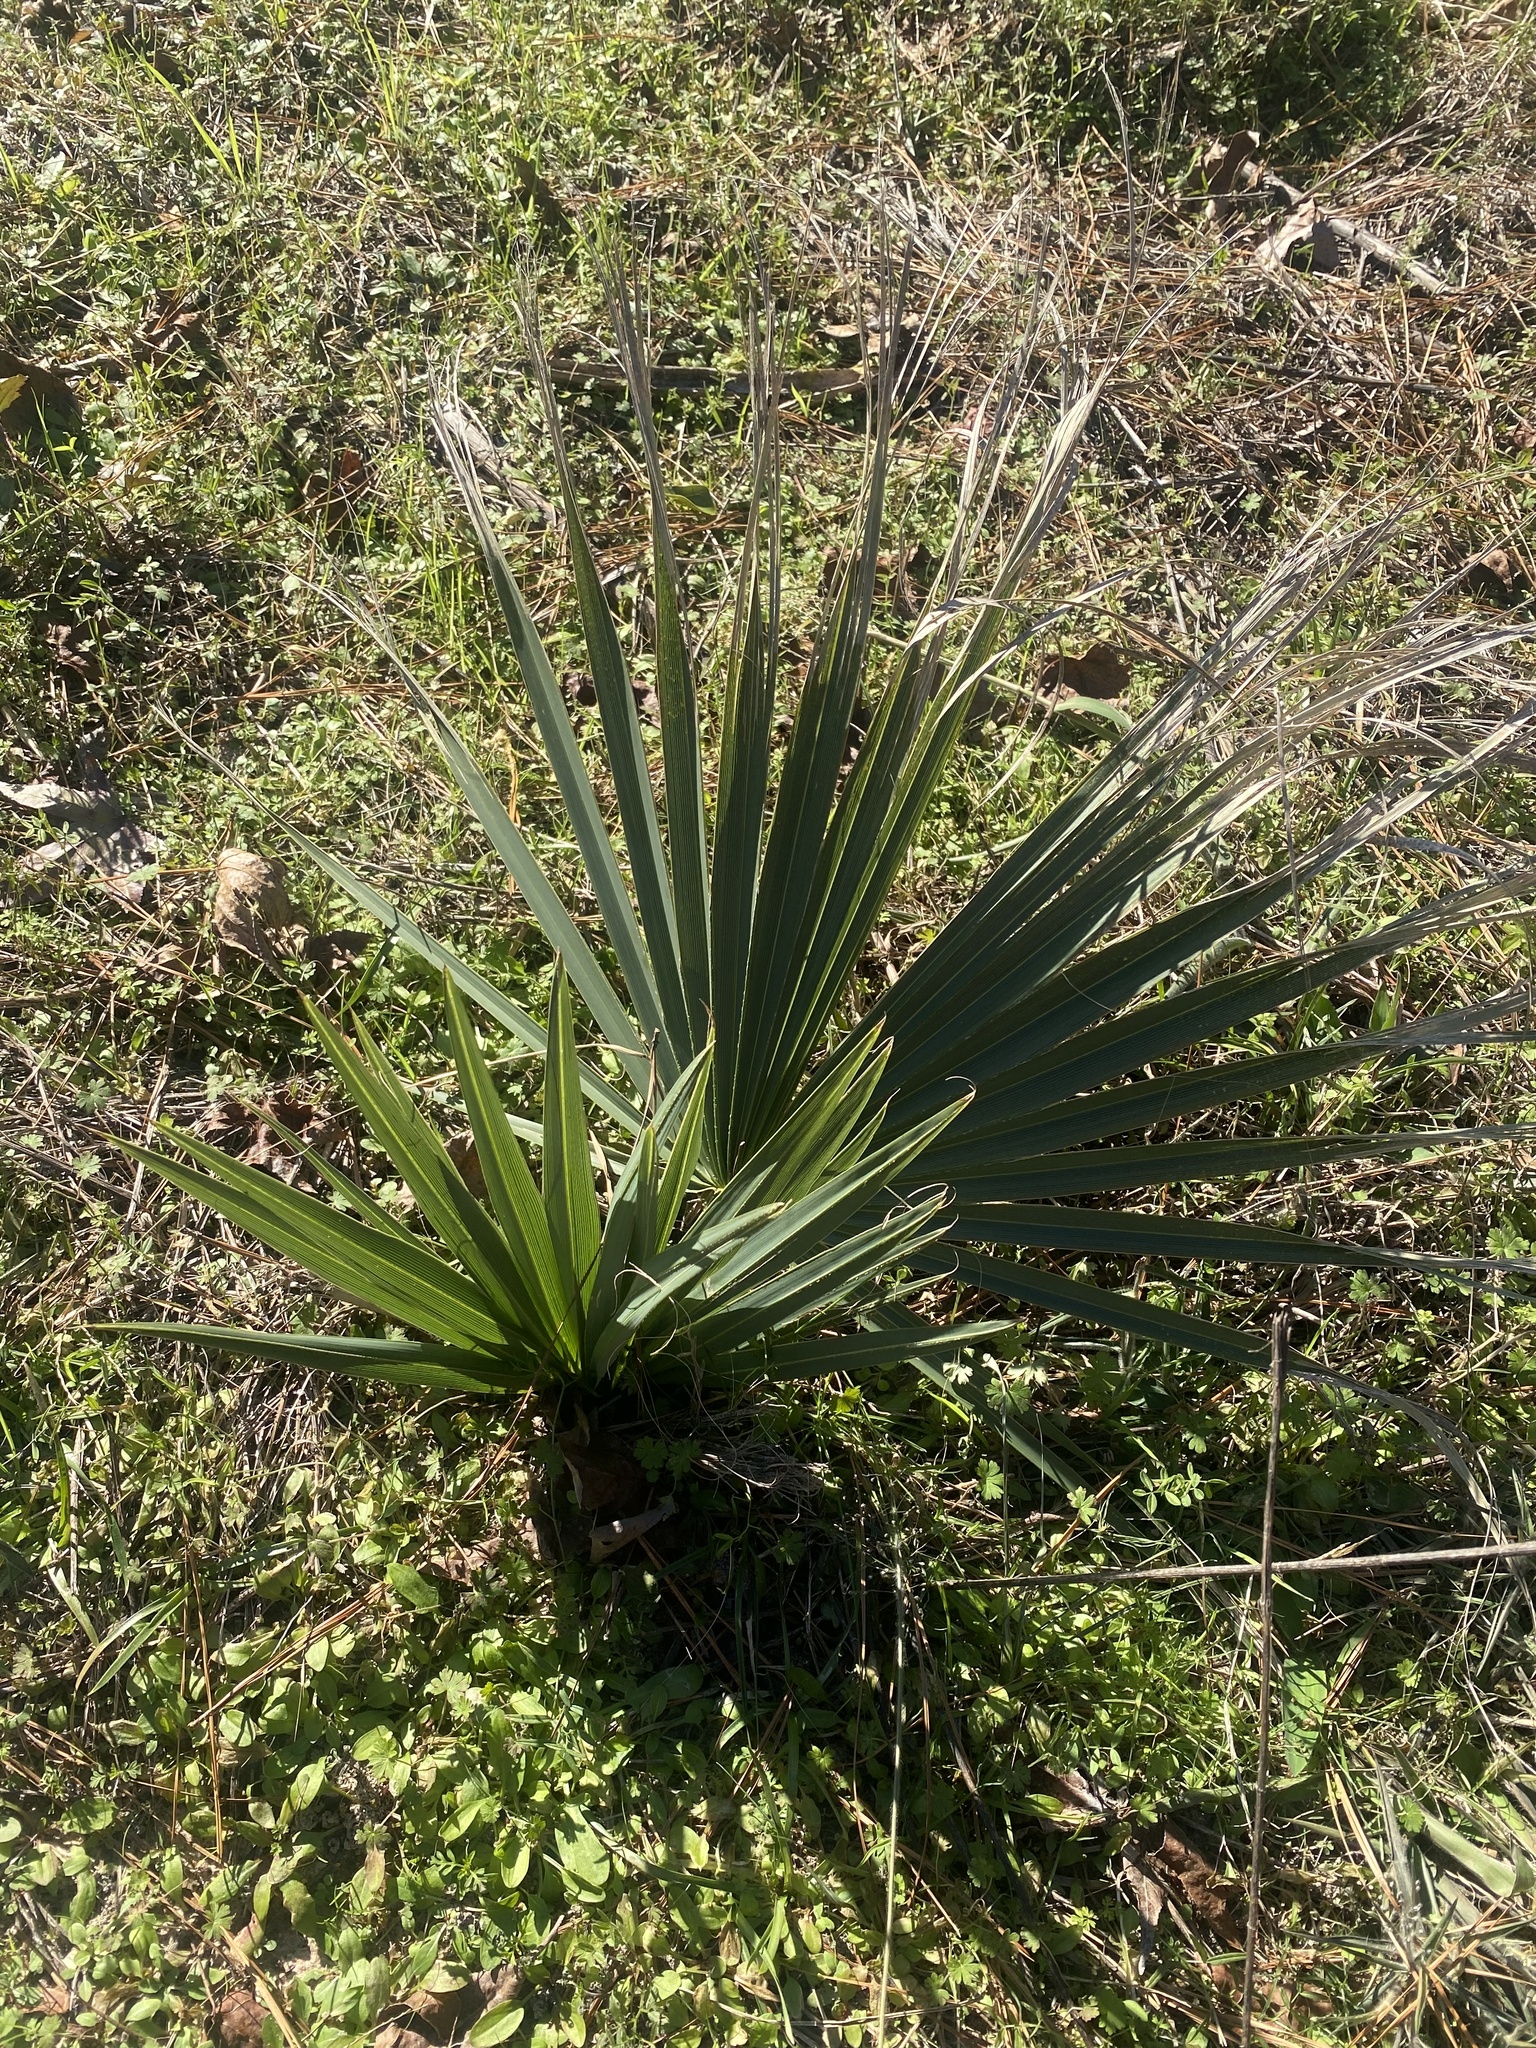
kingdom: Plantae
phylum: Tracheophyta
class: Liliopsida
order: Arecales
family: Arecaceae
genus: Sabal
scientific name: Sabal minor
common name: Dwarf palmetto
